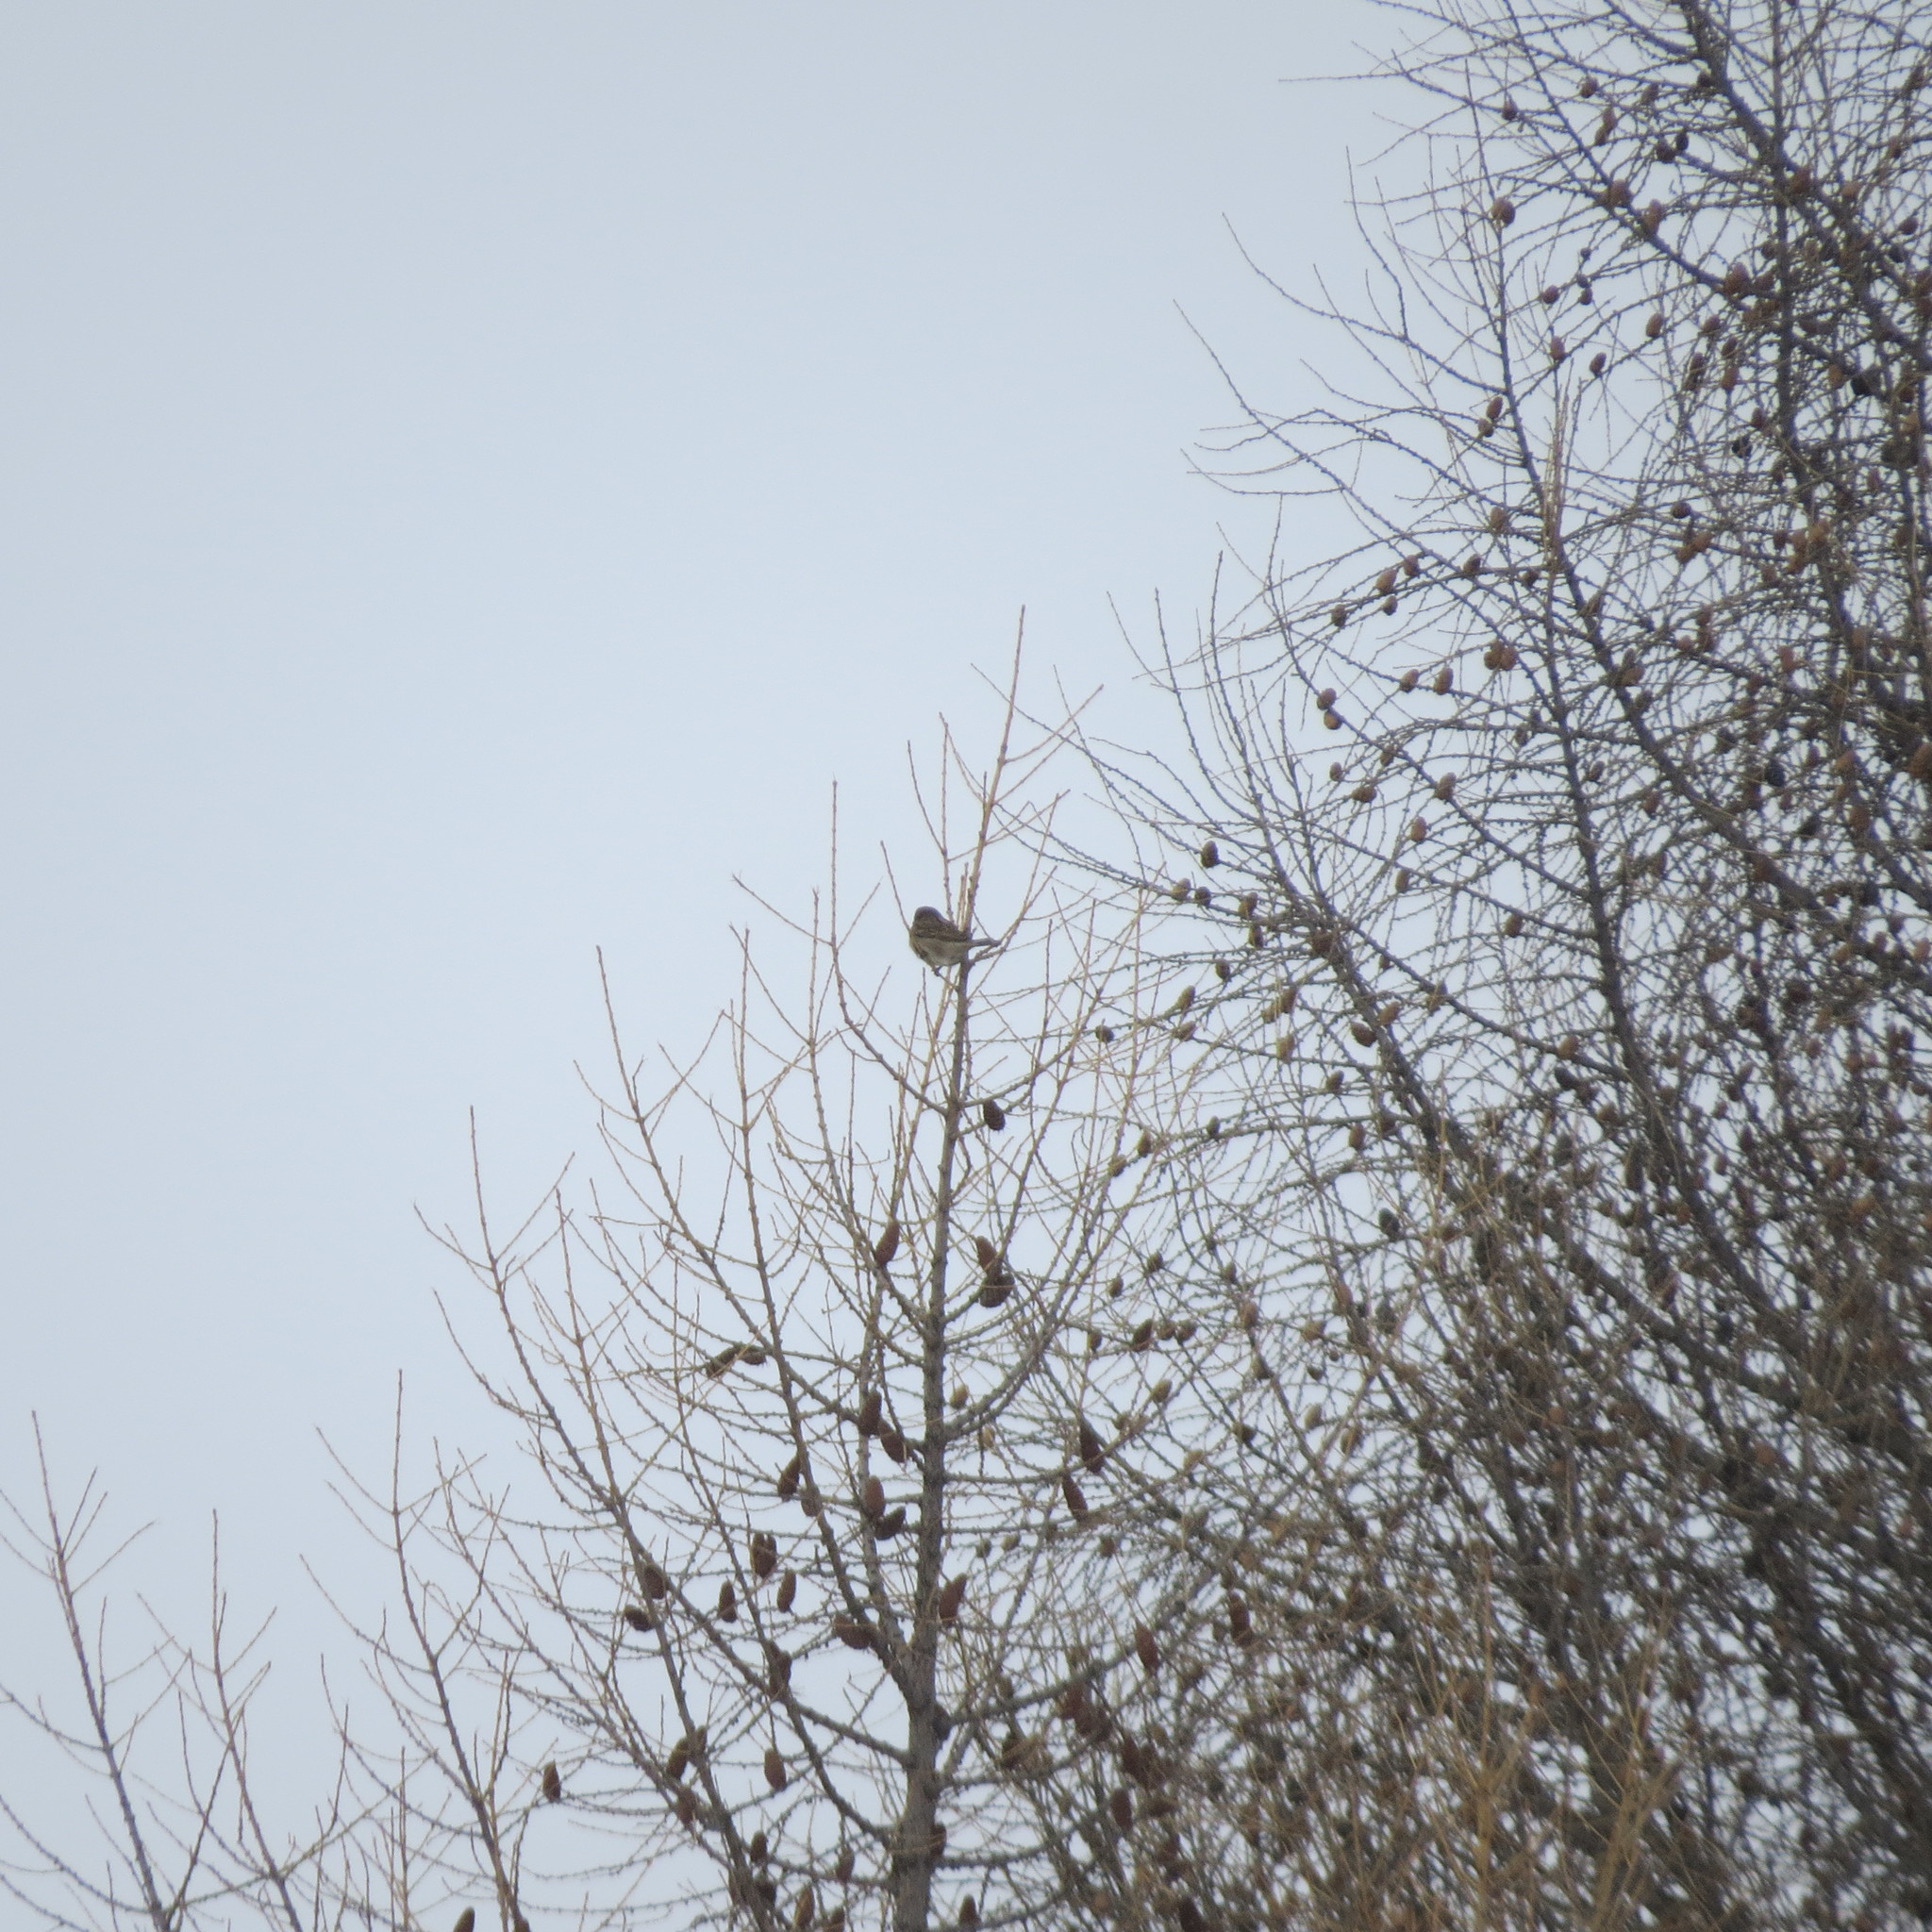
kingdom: Animalia
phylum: Chordata
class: Aves
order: Passeriformes
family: Passeridae
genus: Passer
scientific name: Passer domesticus
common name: House sparrow
